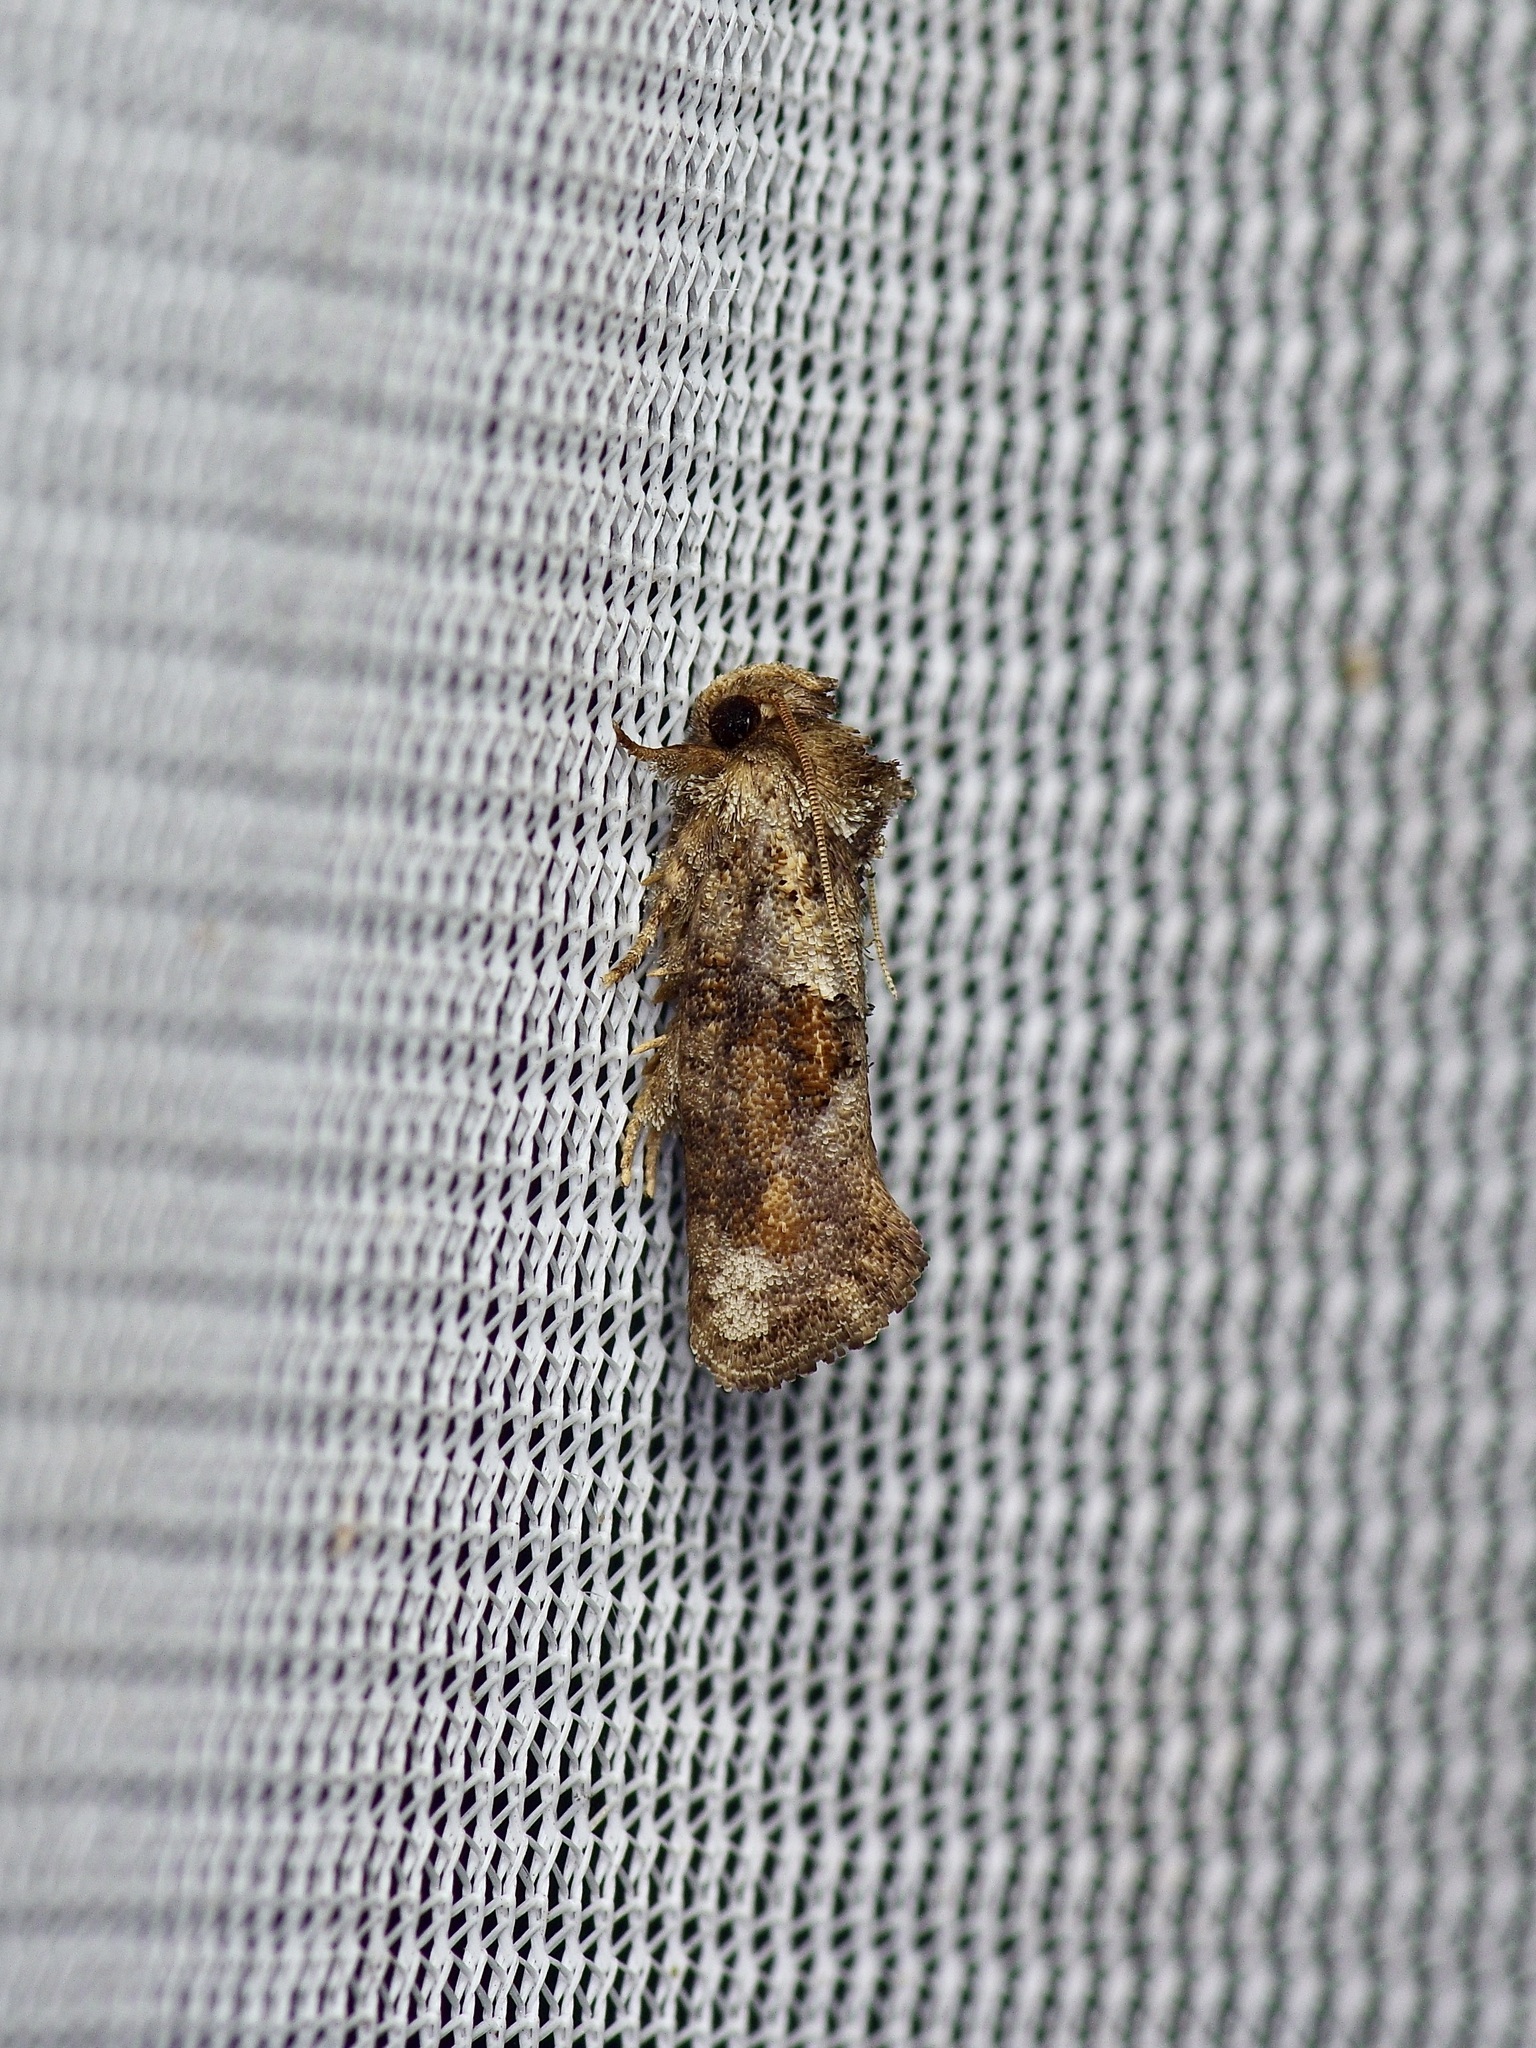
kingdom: Animalia
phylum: Arthropoda
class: Insecta
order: Lepidoptera
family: Tineidae
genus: Acrolophus
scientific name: Acrolophus piger
